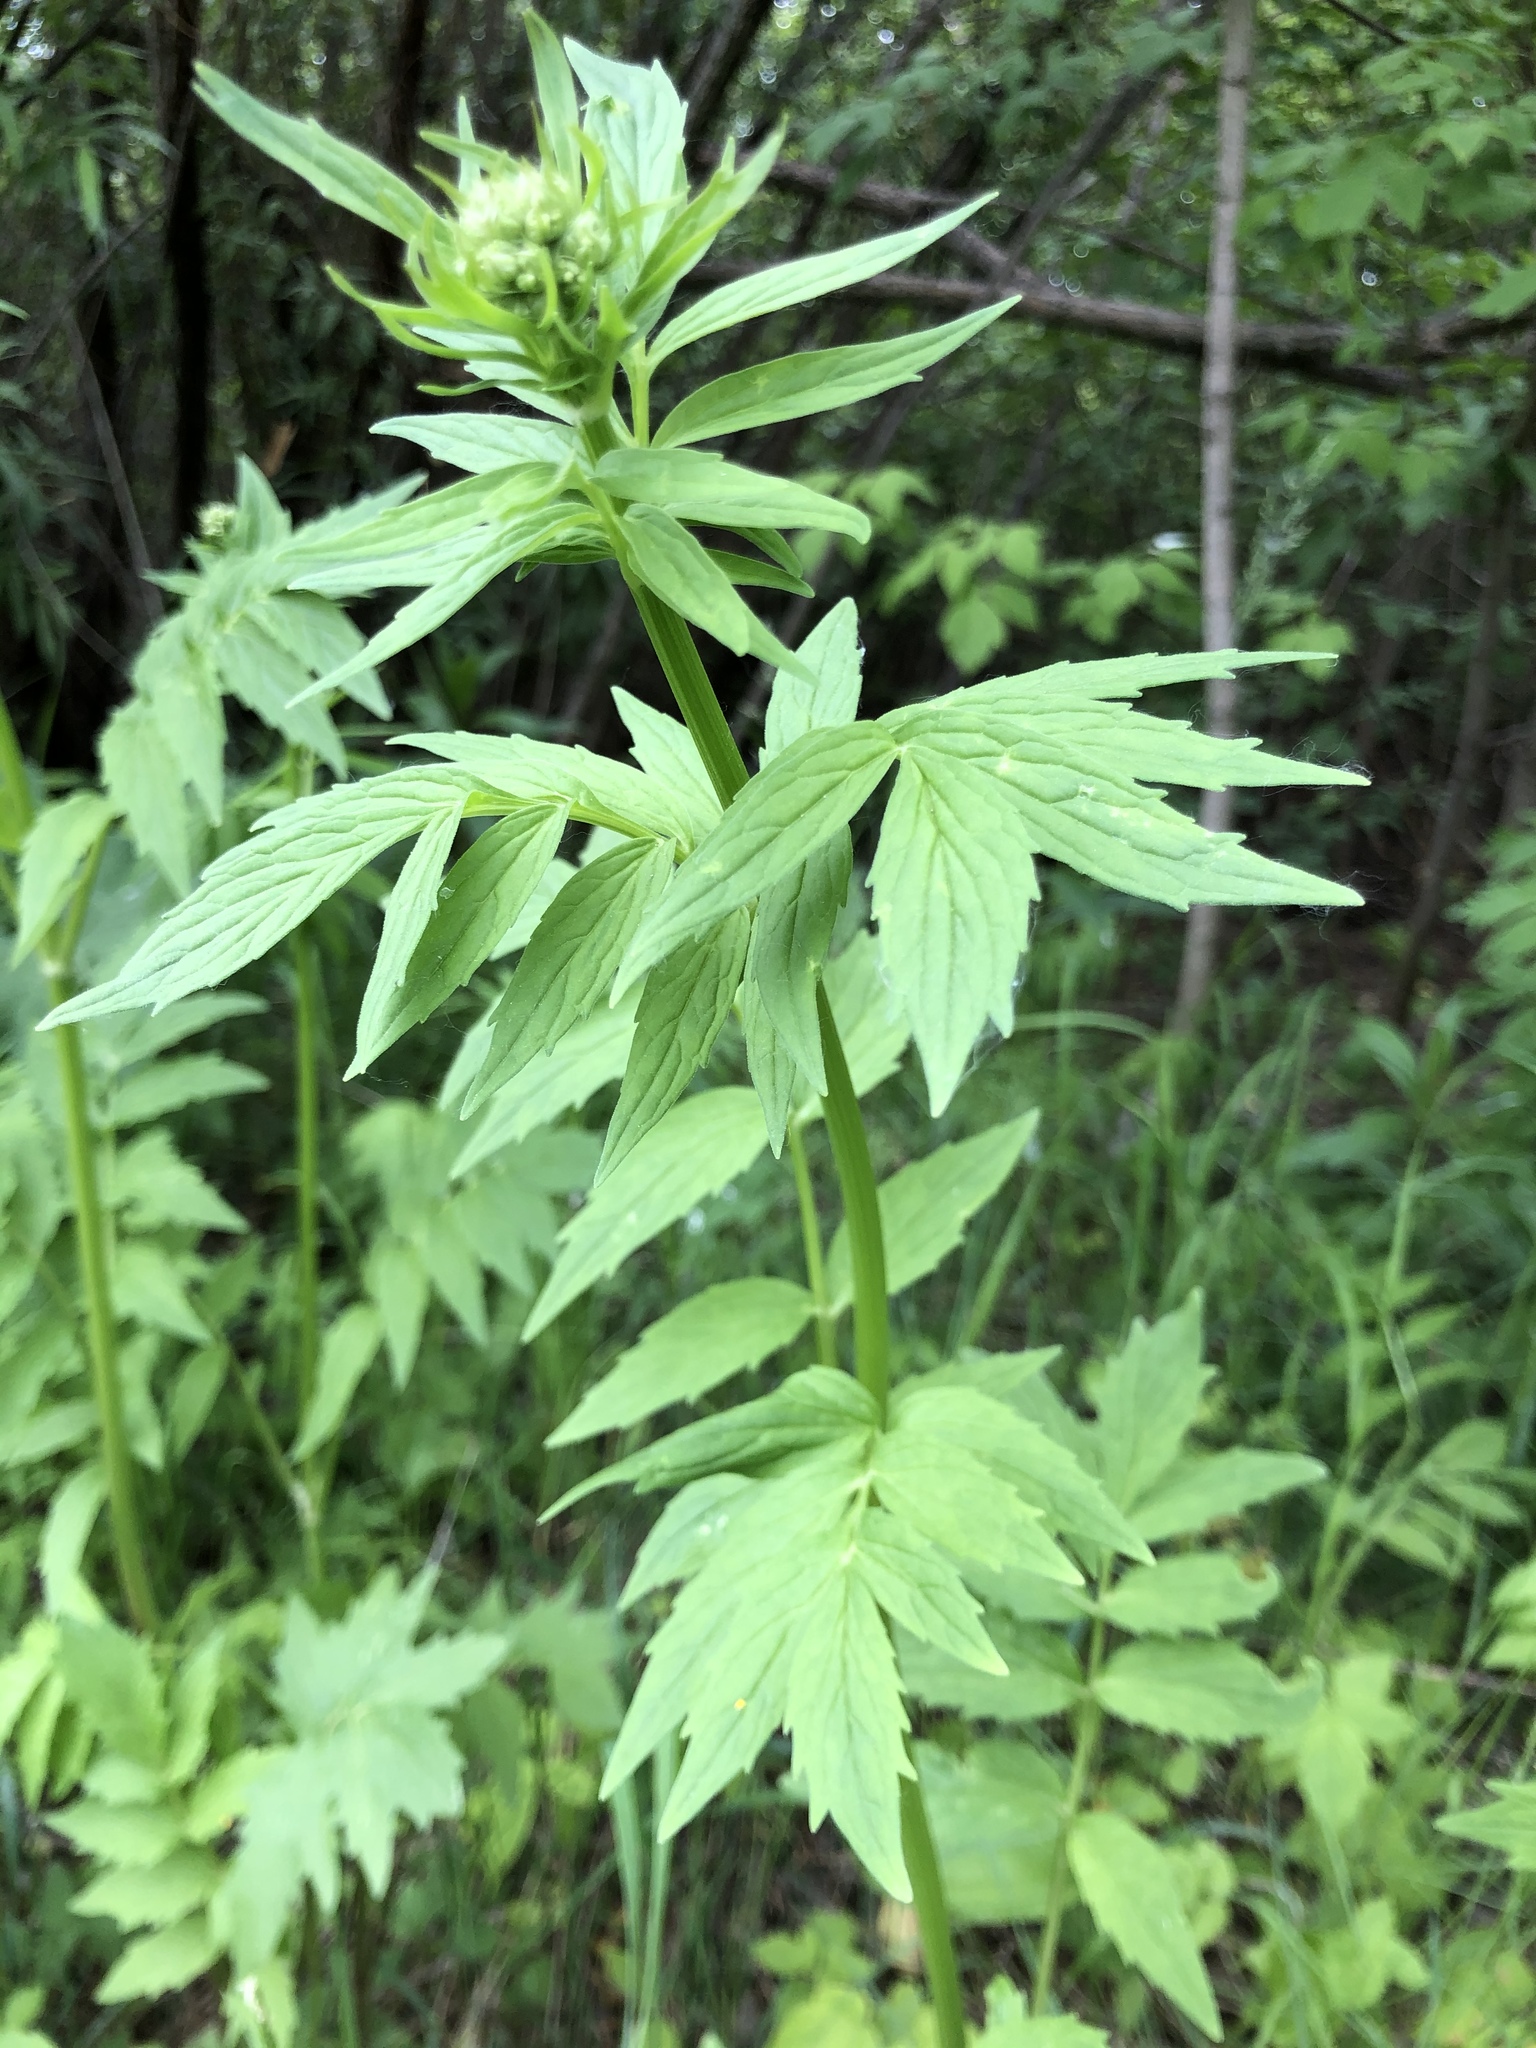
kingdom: Plantae
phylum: Tracheophyta
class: Magnoliopsida
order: Dipsacales
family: Caprifoliaceae
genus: Valeriana
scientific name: Valeriana officinalis
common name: Common valerian
